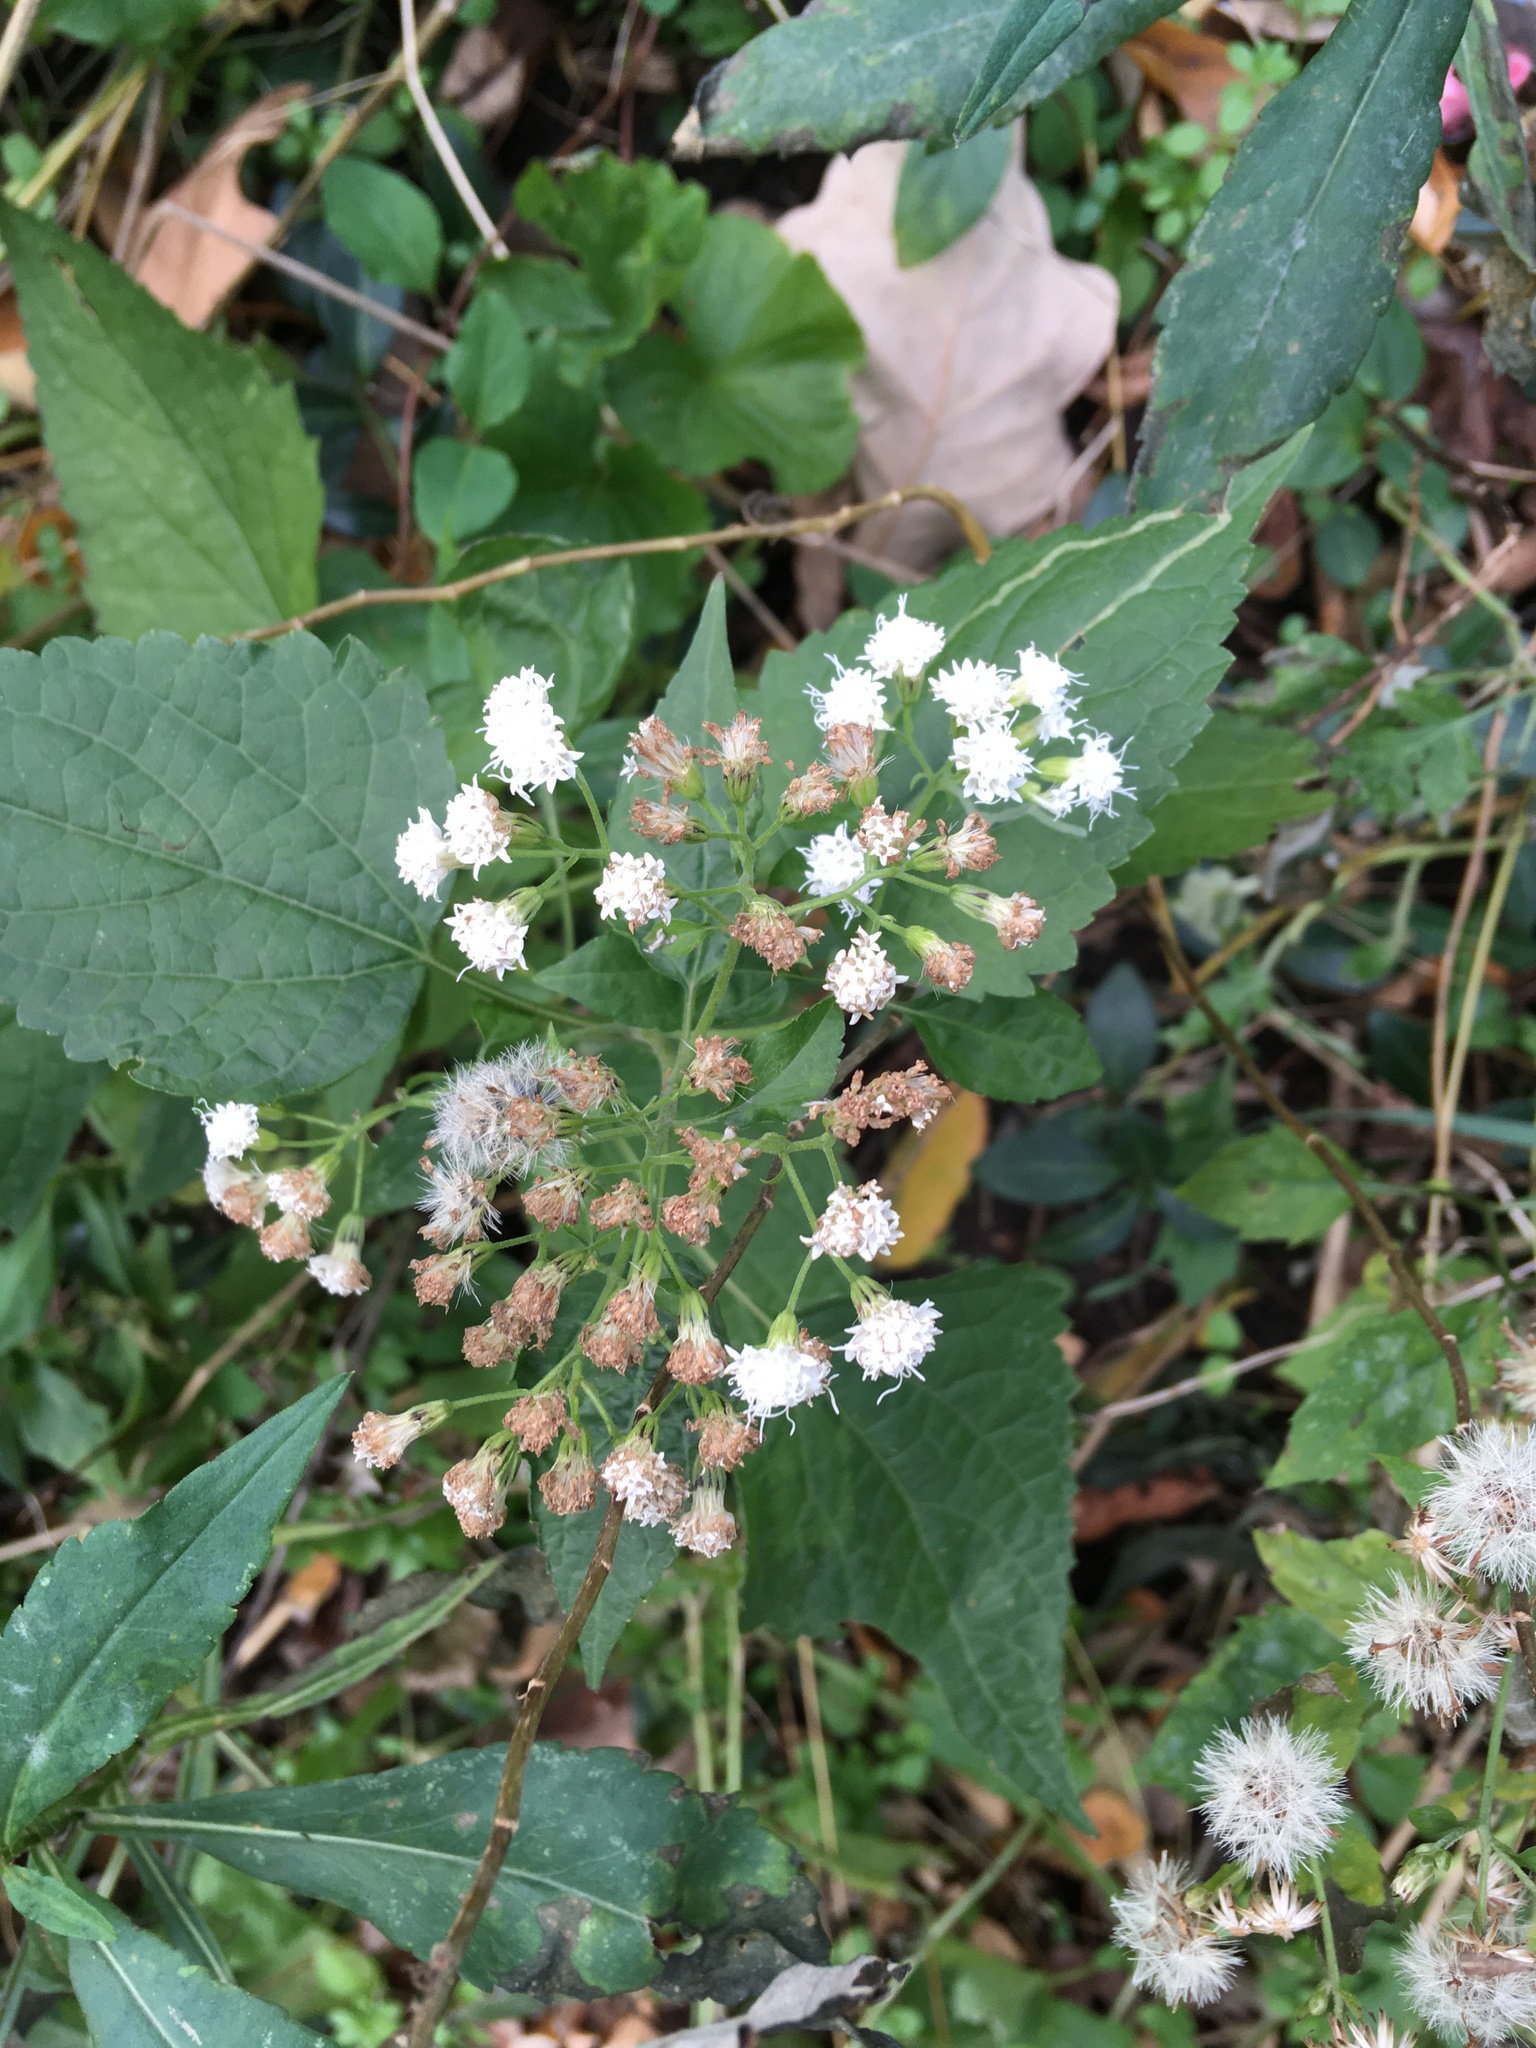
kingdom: Plantae
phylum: Tracheophyta
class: Magnoliopsida
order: Asterales
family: Asteraceae
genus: Ageratina
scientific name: Ageratina altissima
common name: White snakeroot
